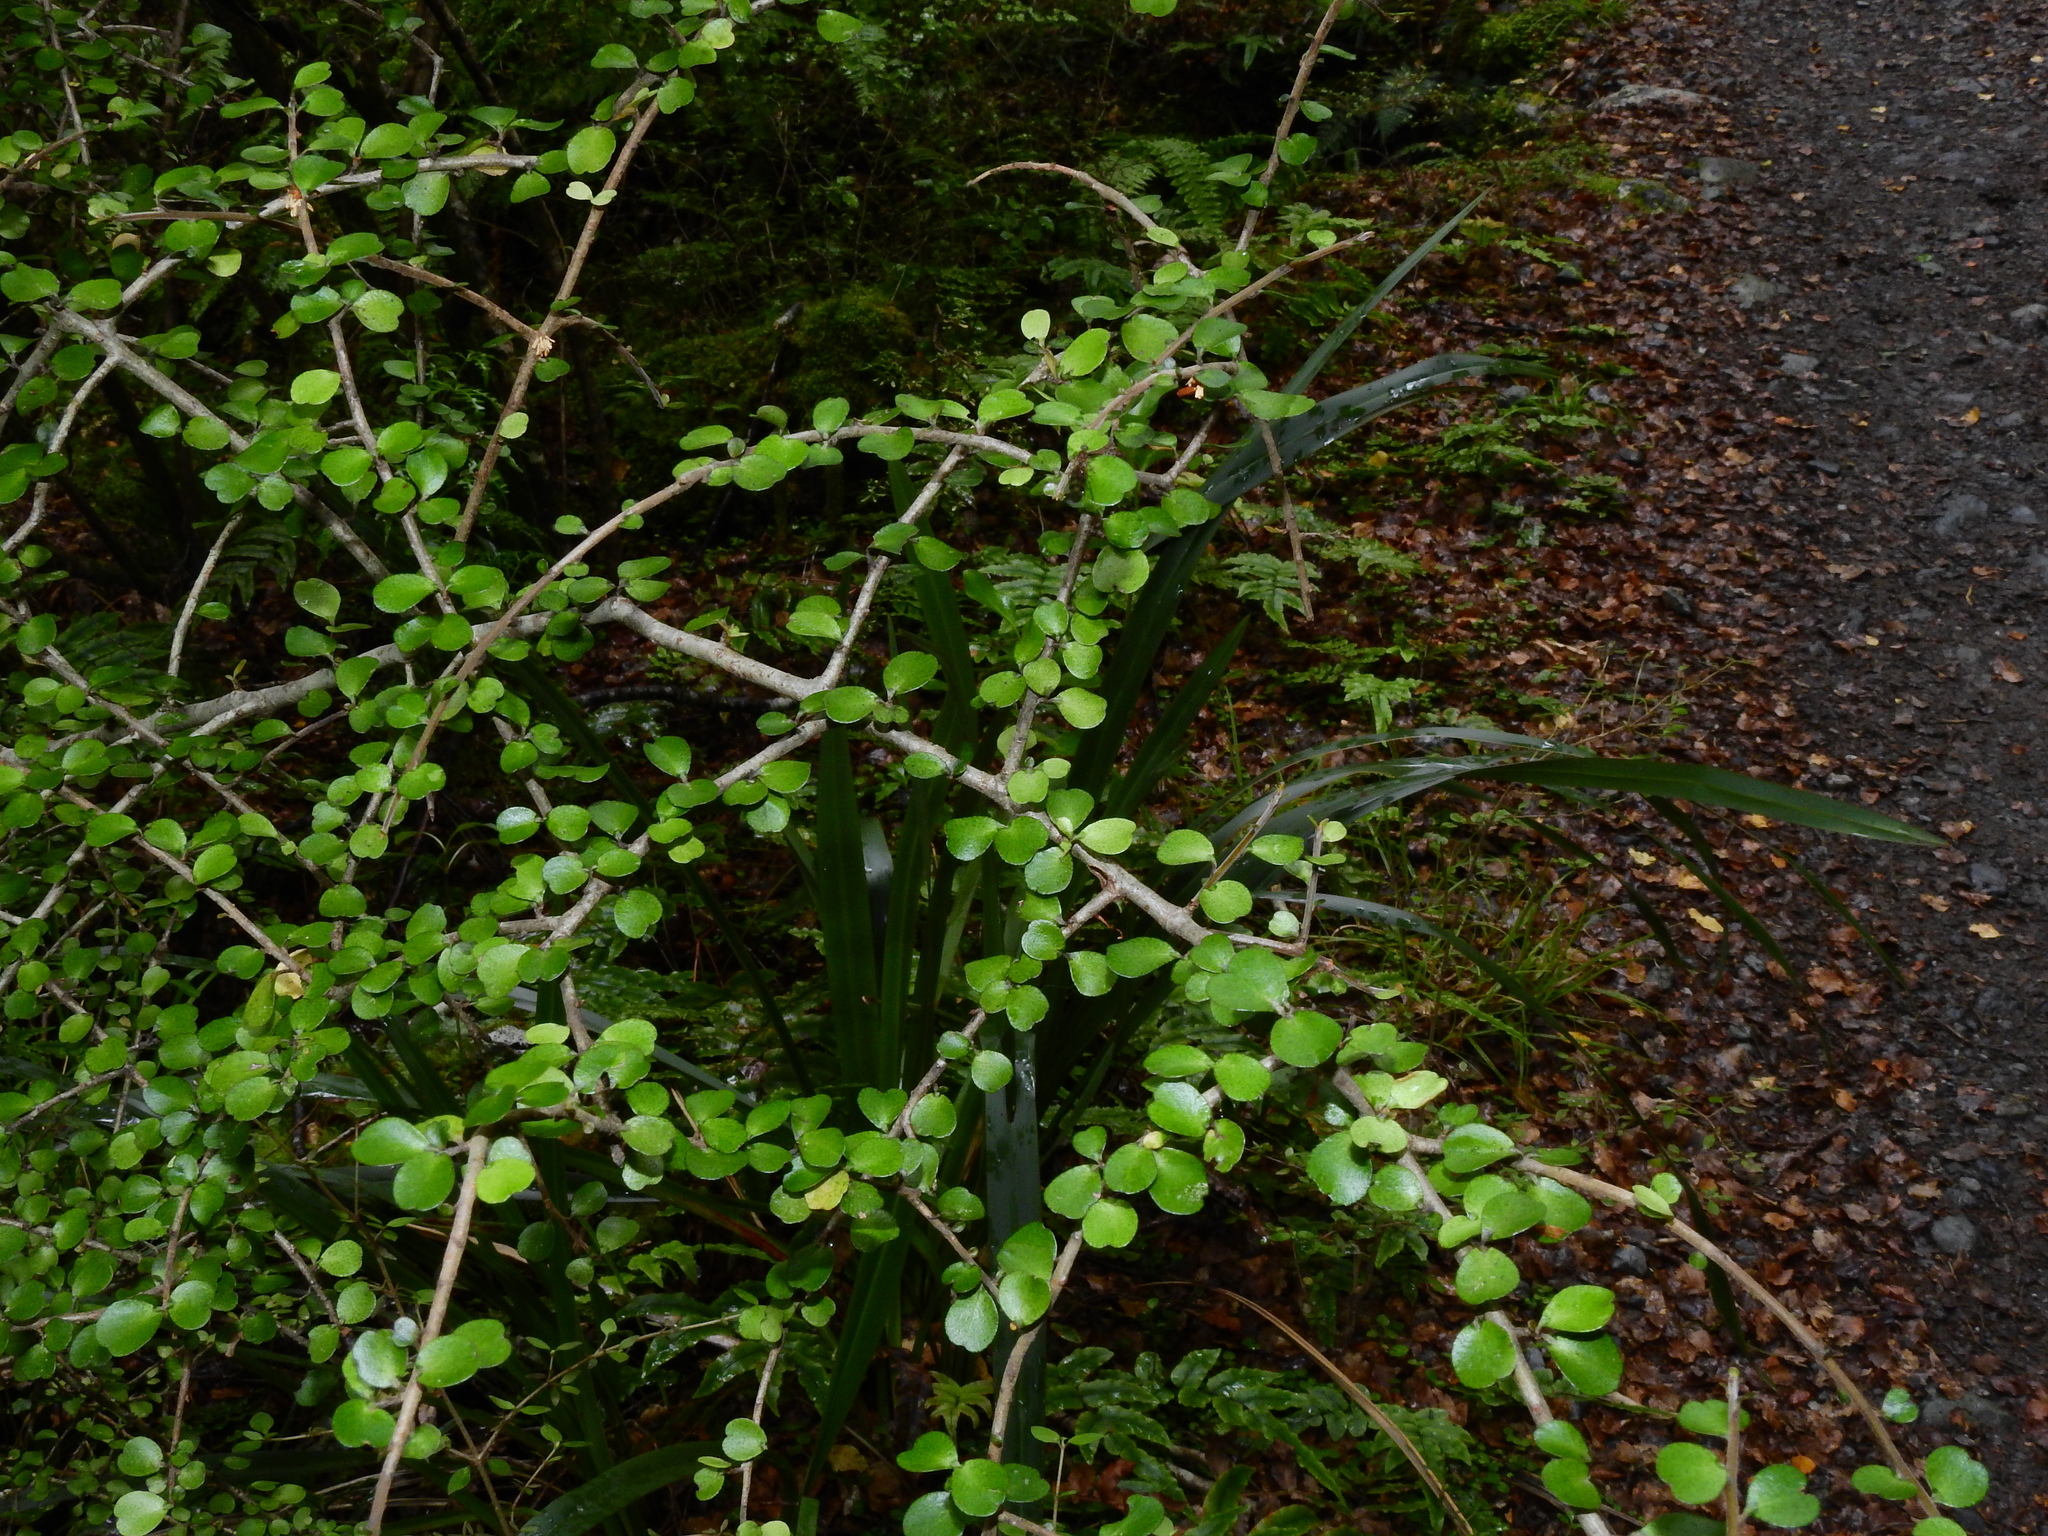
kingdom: Plantae
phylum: Tracheophyta
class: Magnoliopsida
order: Ericales
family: Primulaceae
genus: Myrsine
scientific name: Myrsine divaricata
